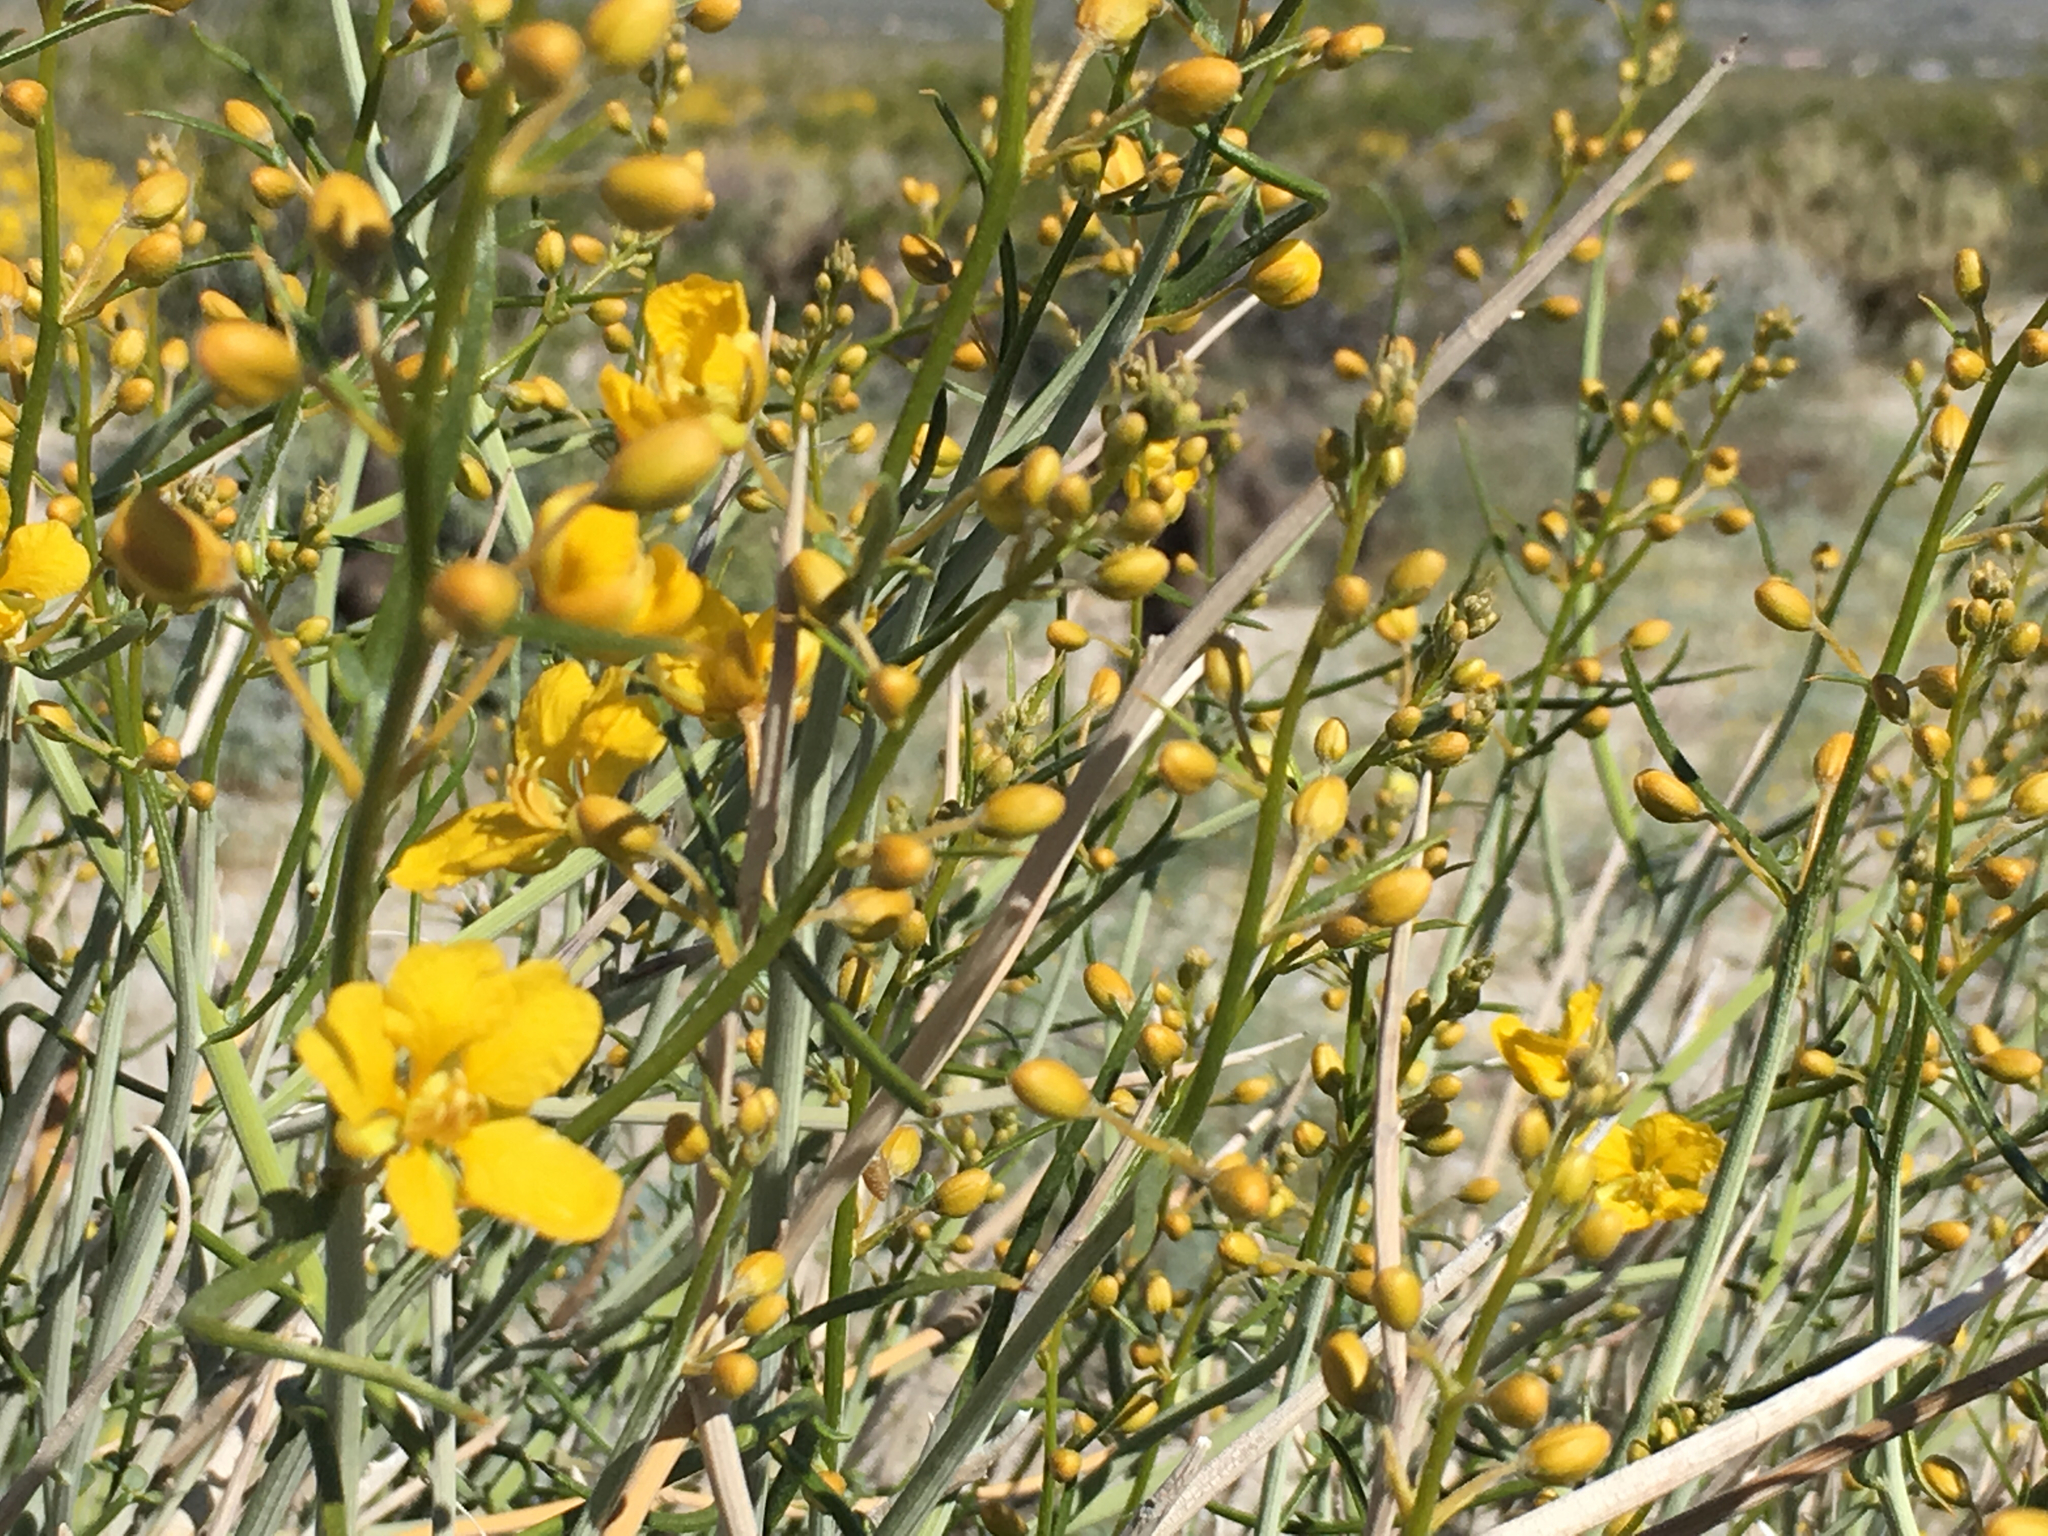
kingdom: Plantae
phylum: Tracheophyta
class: Magnoliopsida
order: Fabales
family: Fabaceae
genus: Senna
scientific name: Senna armata
